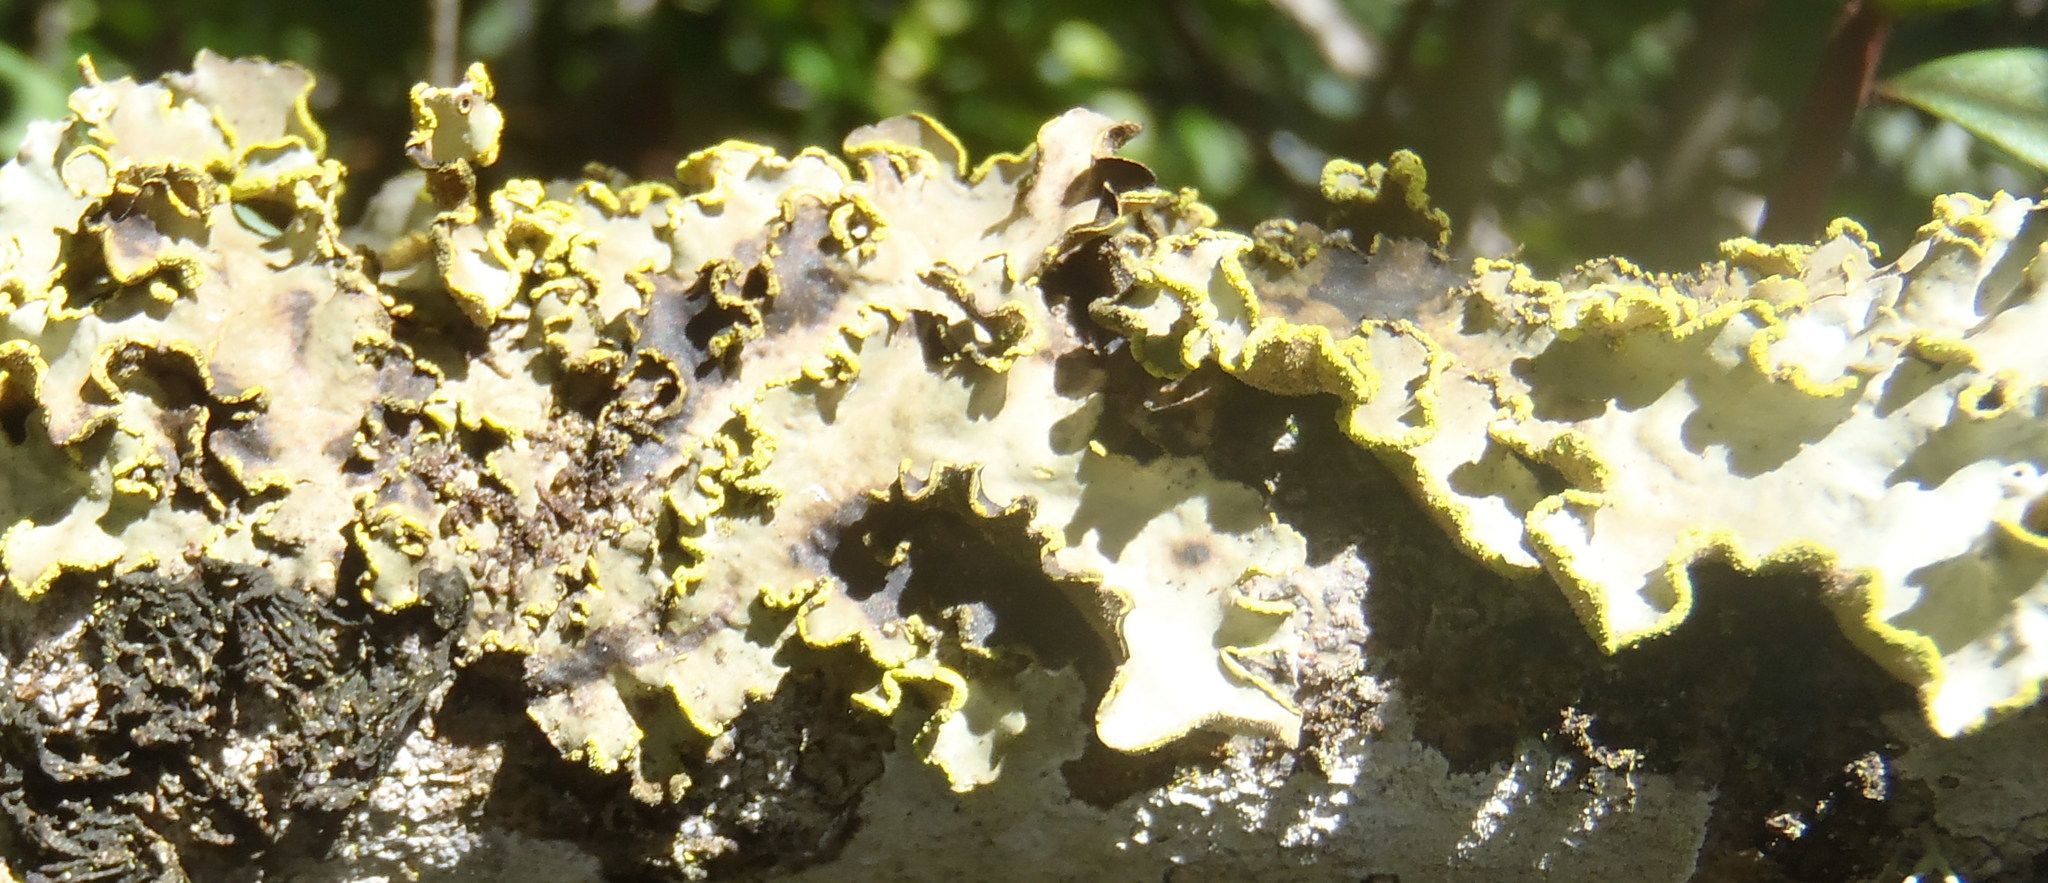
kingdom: Fungi
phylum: Ascomycota
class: Lecanoromycetes
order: Peltigerales
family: Lobariaceae
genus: Pseudocyphellaria
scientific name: Pseudocyphellaria aurata
